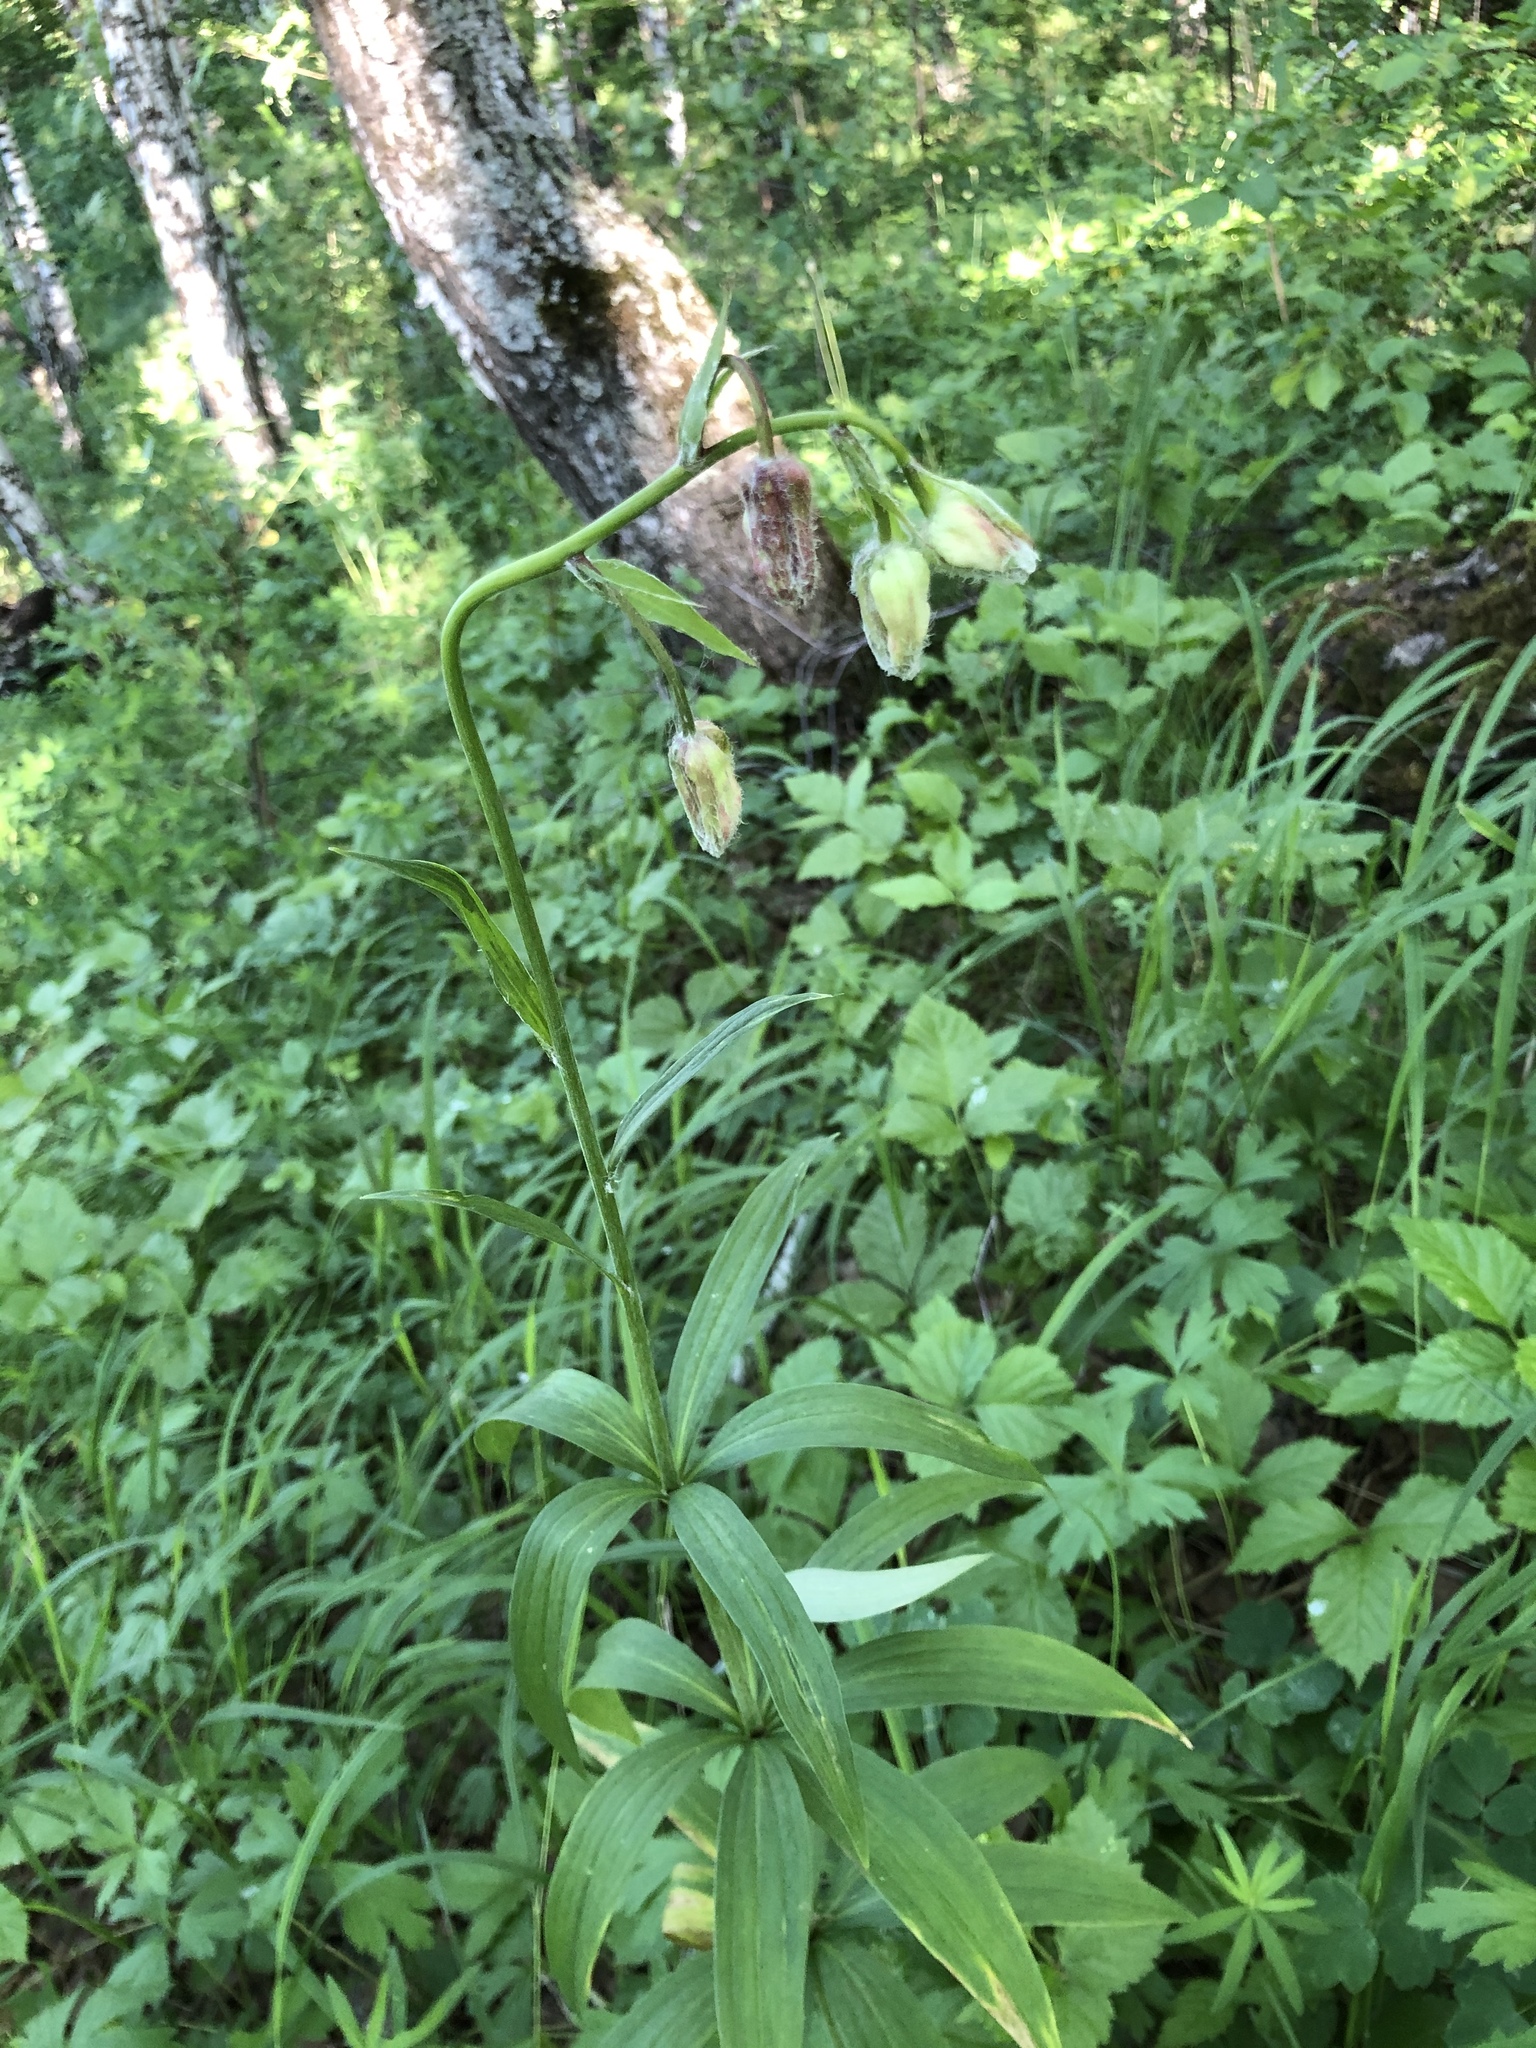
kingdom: Plantae
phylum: Tracheophyta
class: Liliopsida
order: Liliales
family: Liliaceae
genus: Lilium
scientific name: Lilium martagon
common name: Martagon lily
